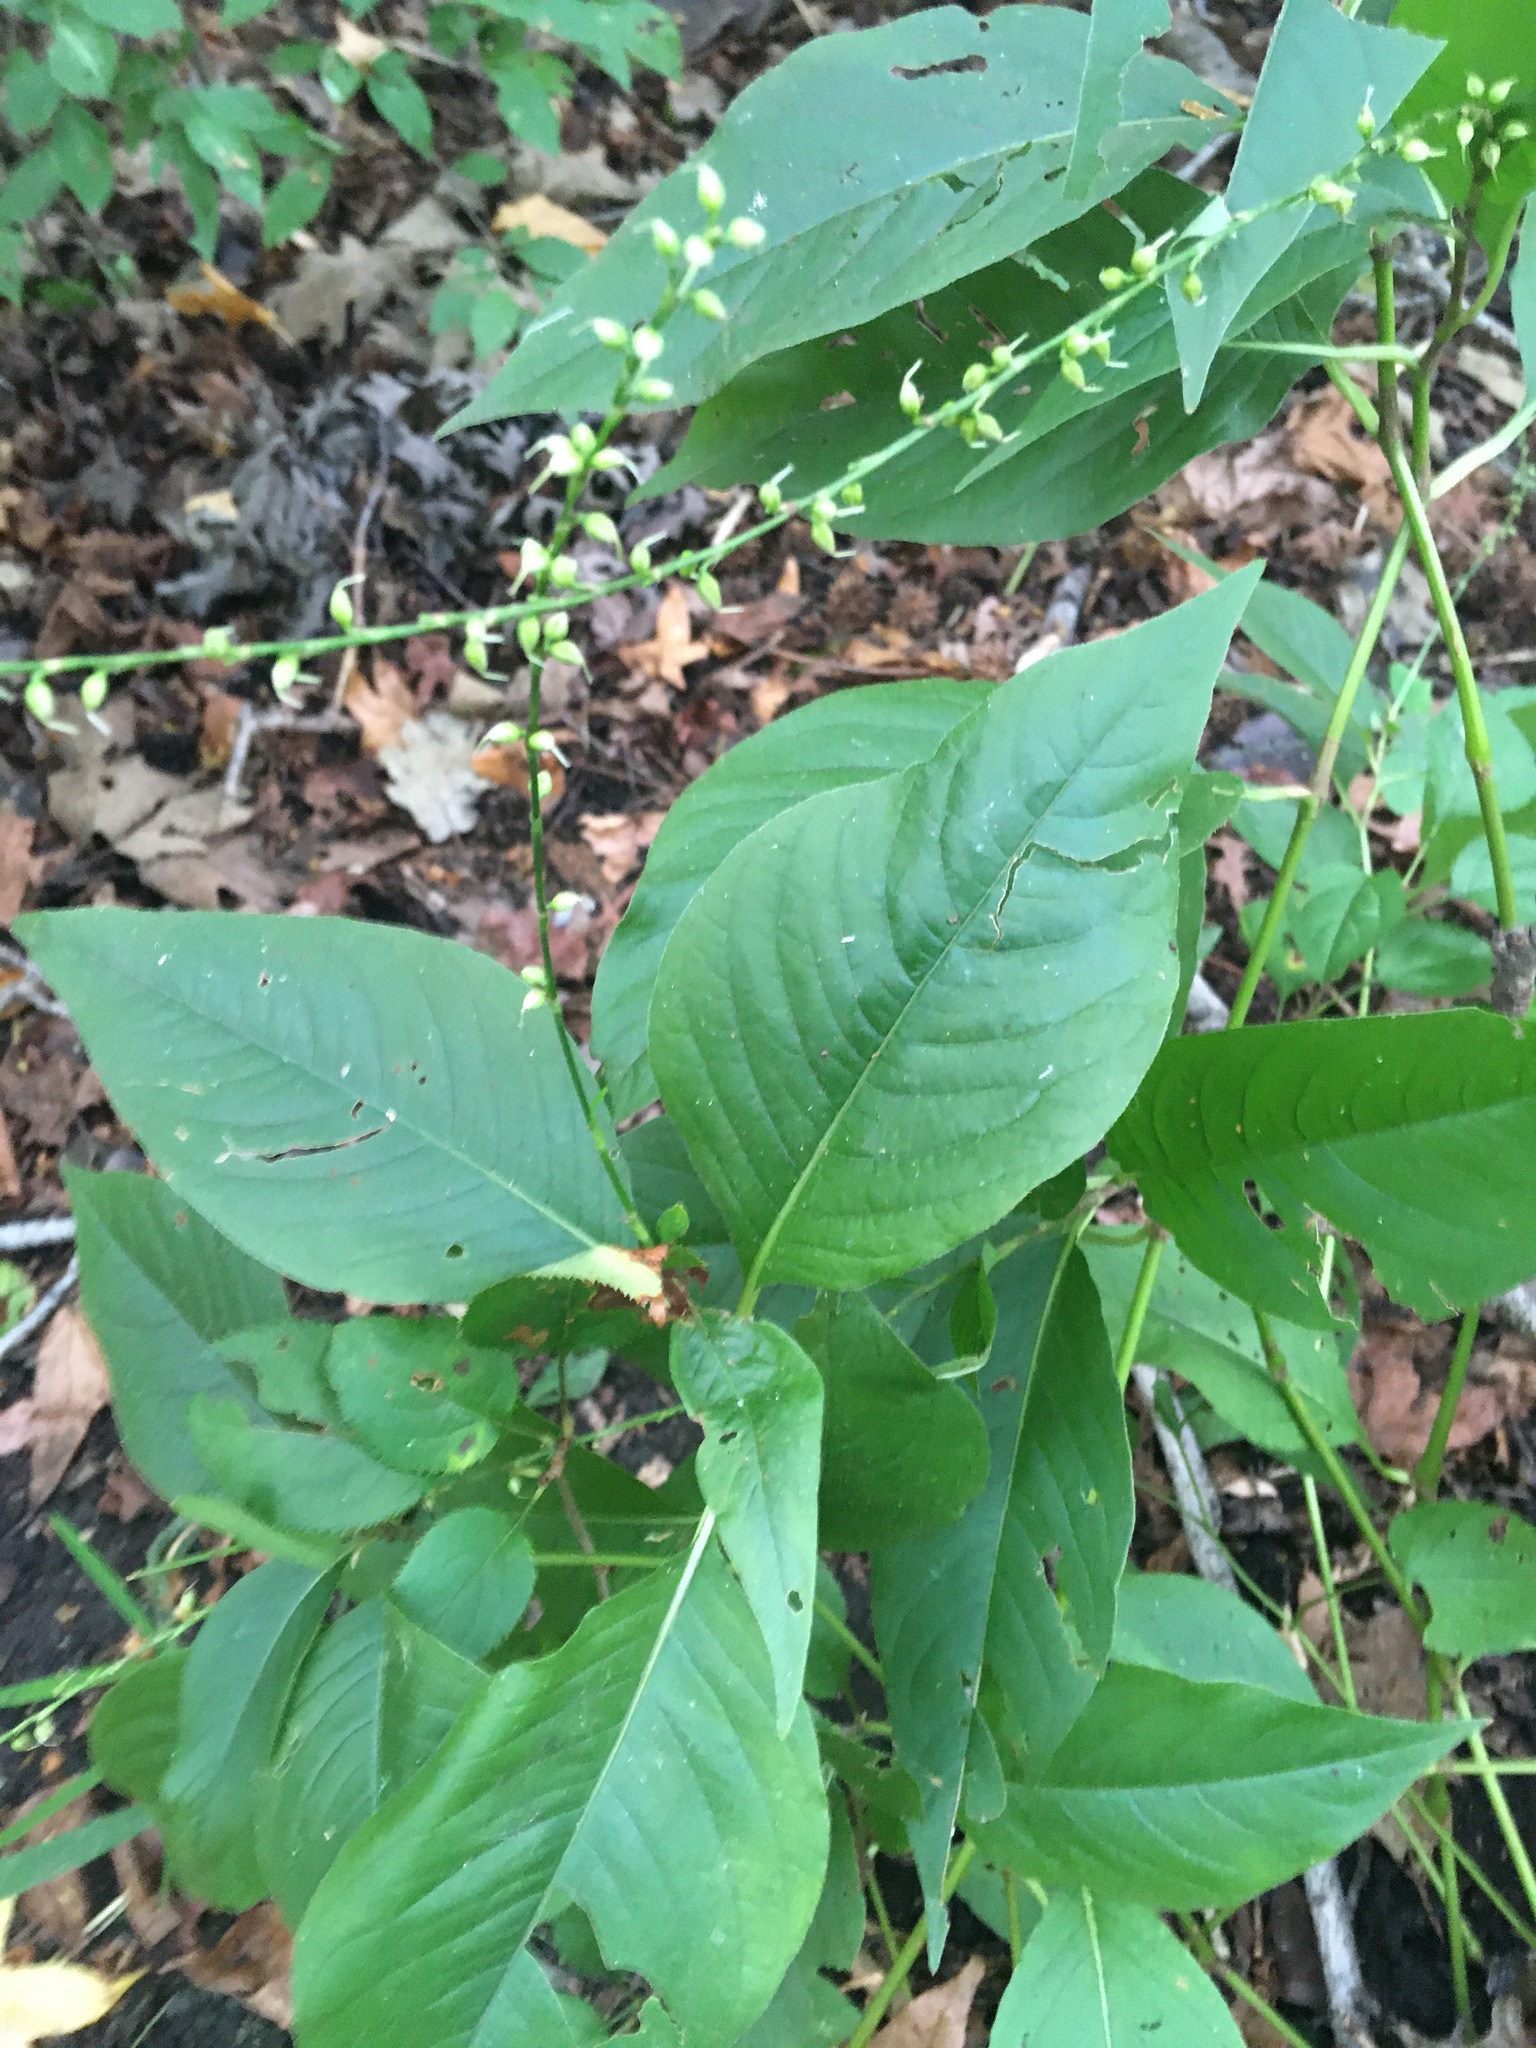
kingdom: Plantae
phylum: Tracheophyta
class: Magnoliopsida
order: Caryophyllales
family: Polygonaceae
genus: Persicaria
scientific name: Persicaria virginiana
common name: Jumpseed
